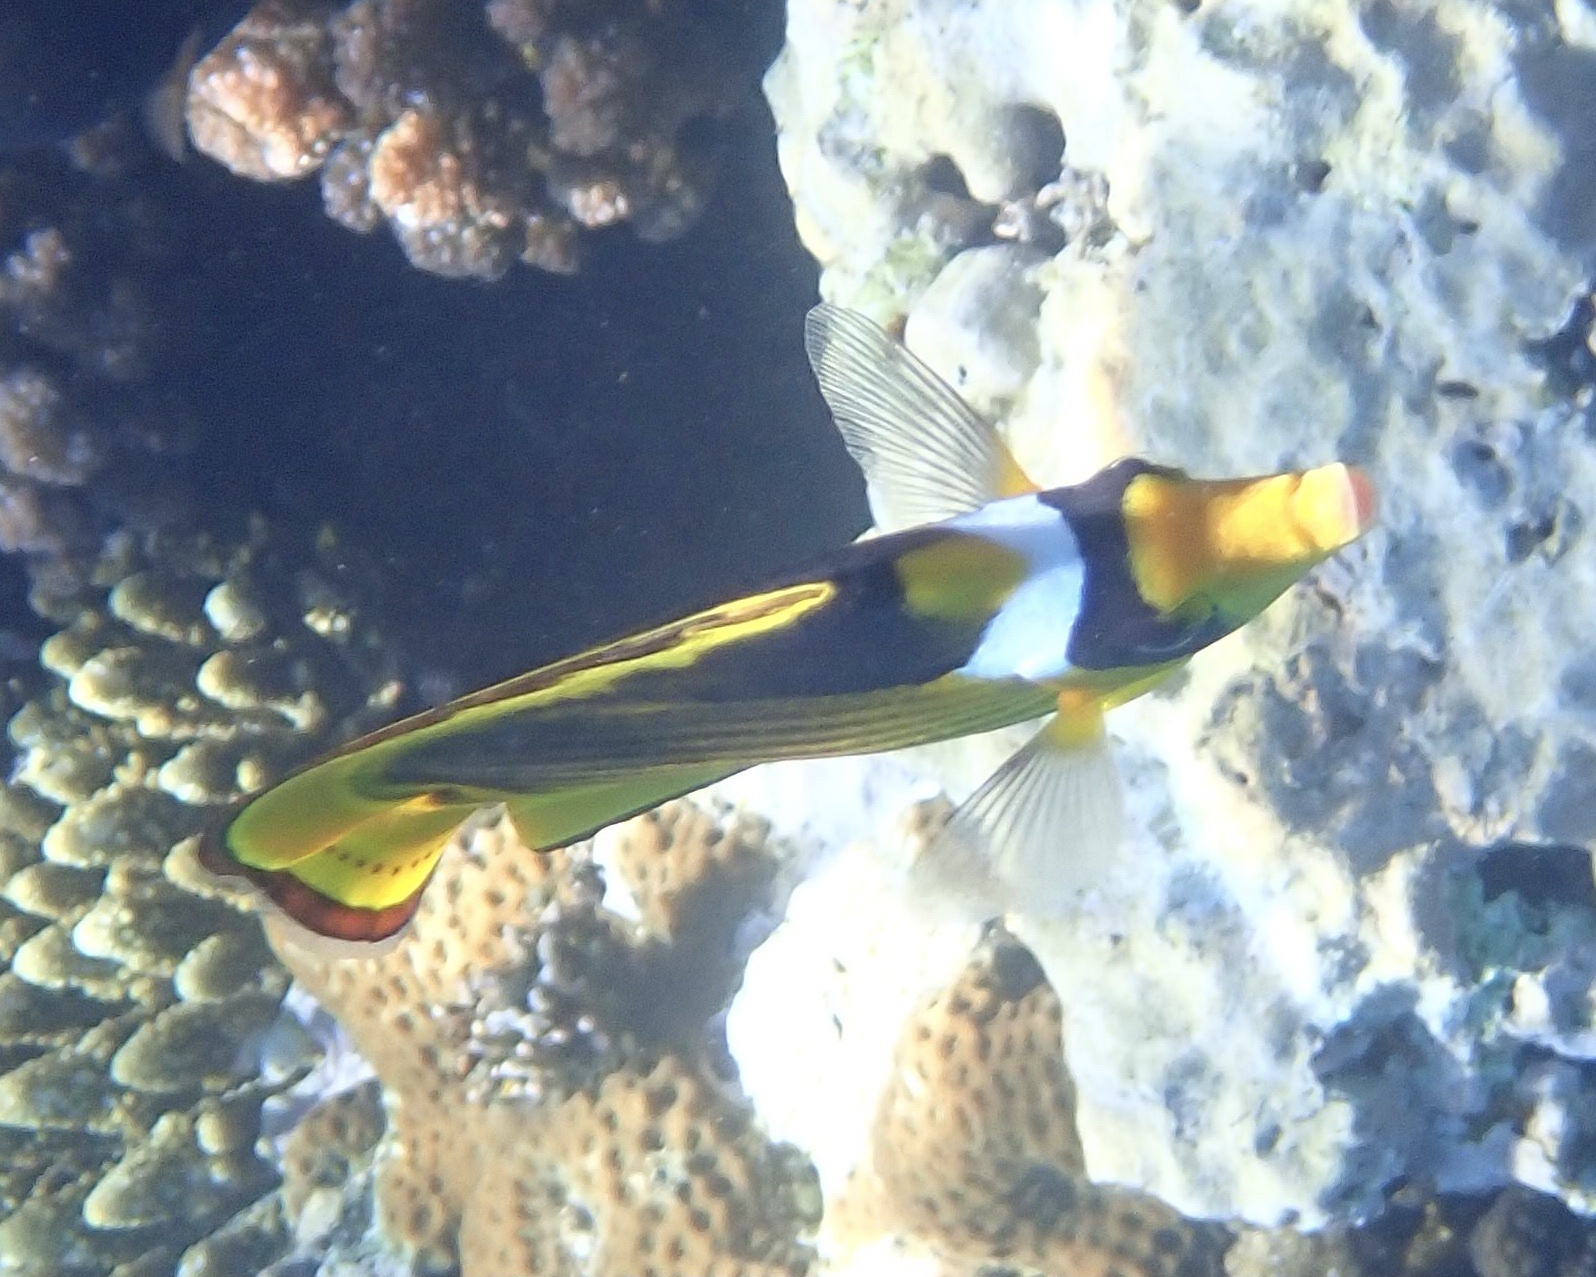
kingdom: Animalia
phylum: Chordata
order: Perciformes
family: Chaetodontidae
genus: Chaetodon
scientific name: Chaetodon fasciatus
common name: Diagonal butterflyfish
